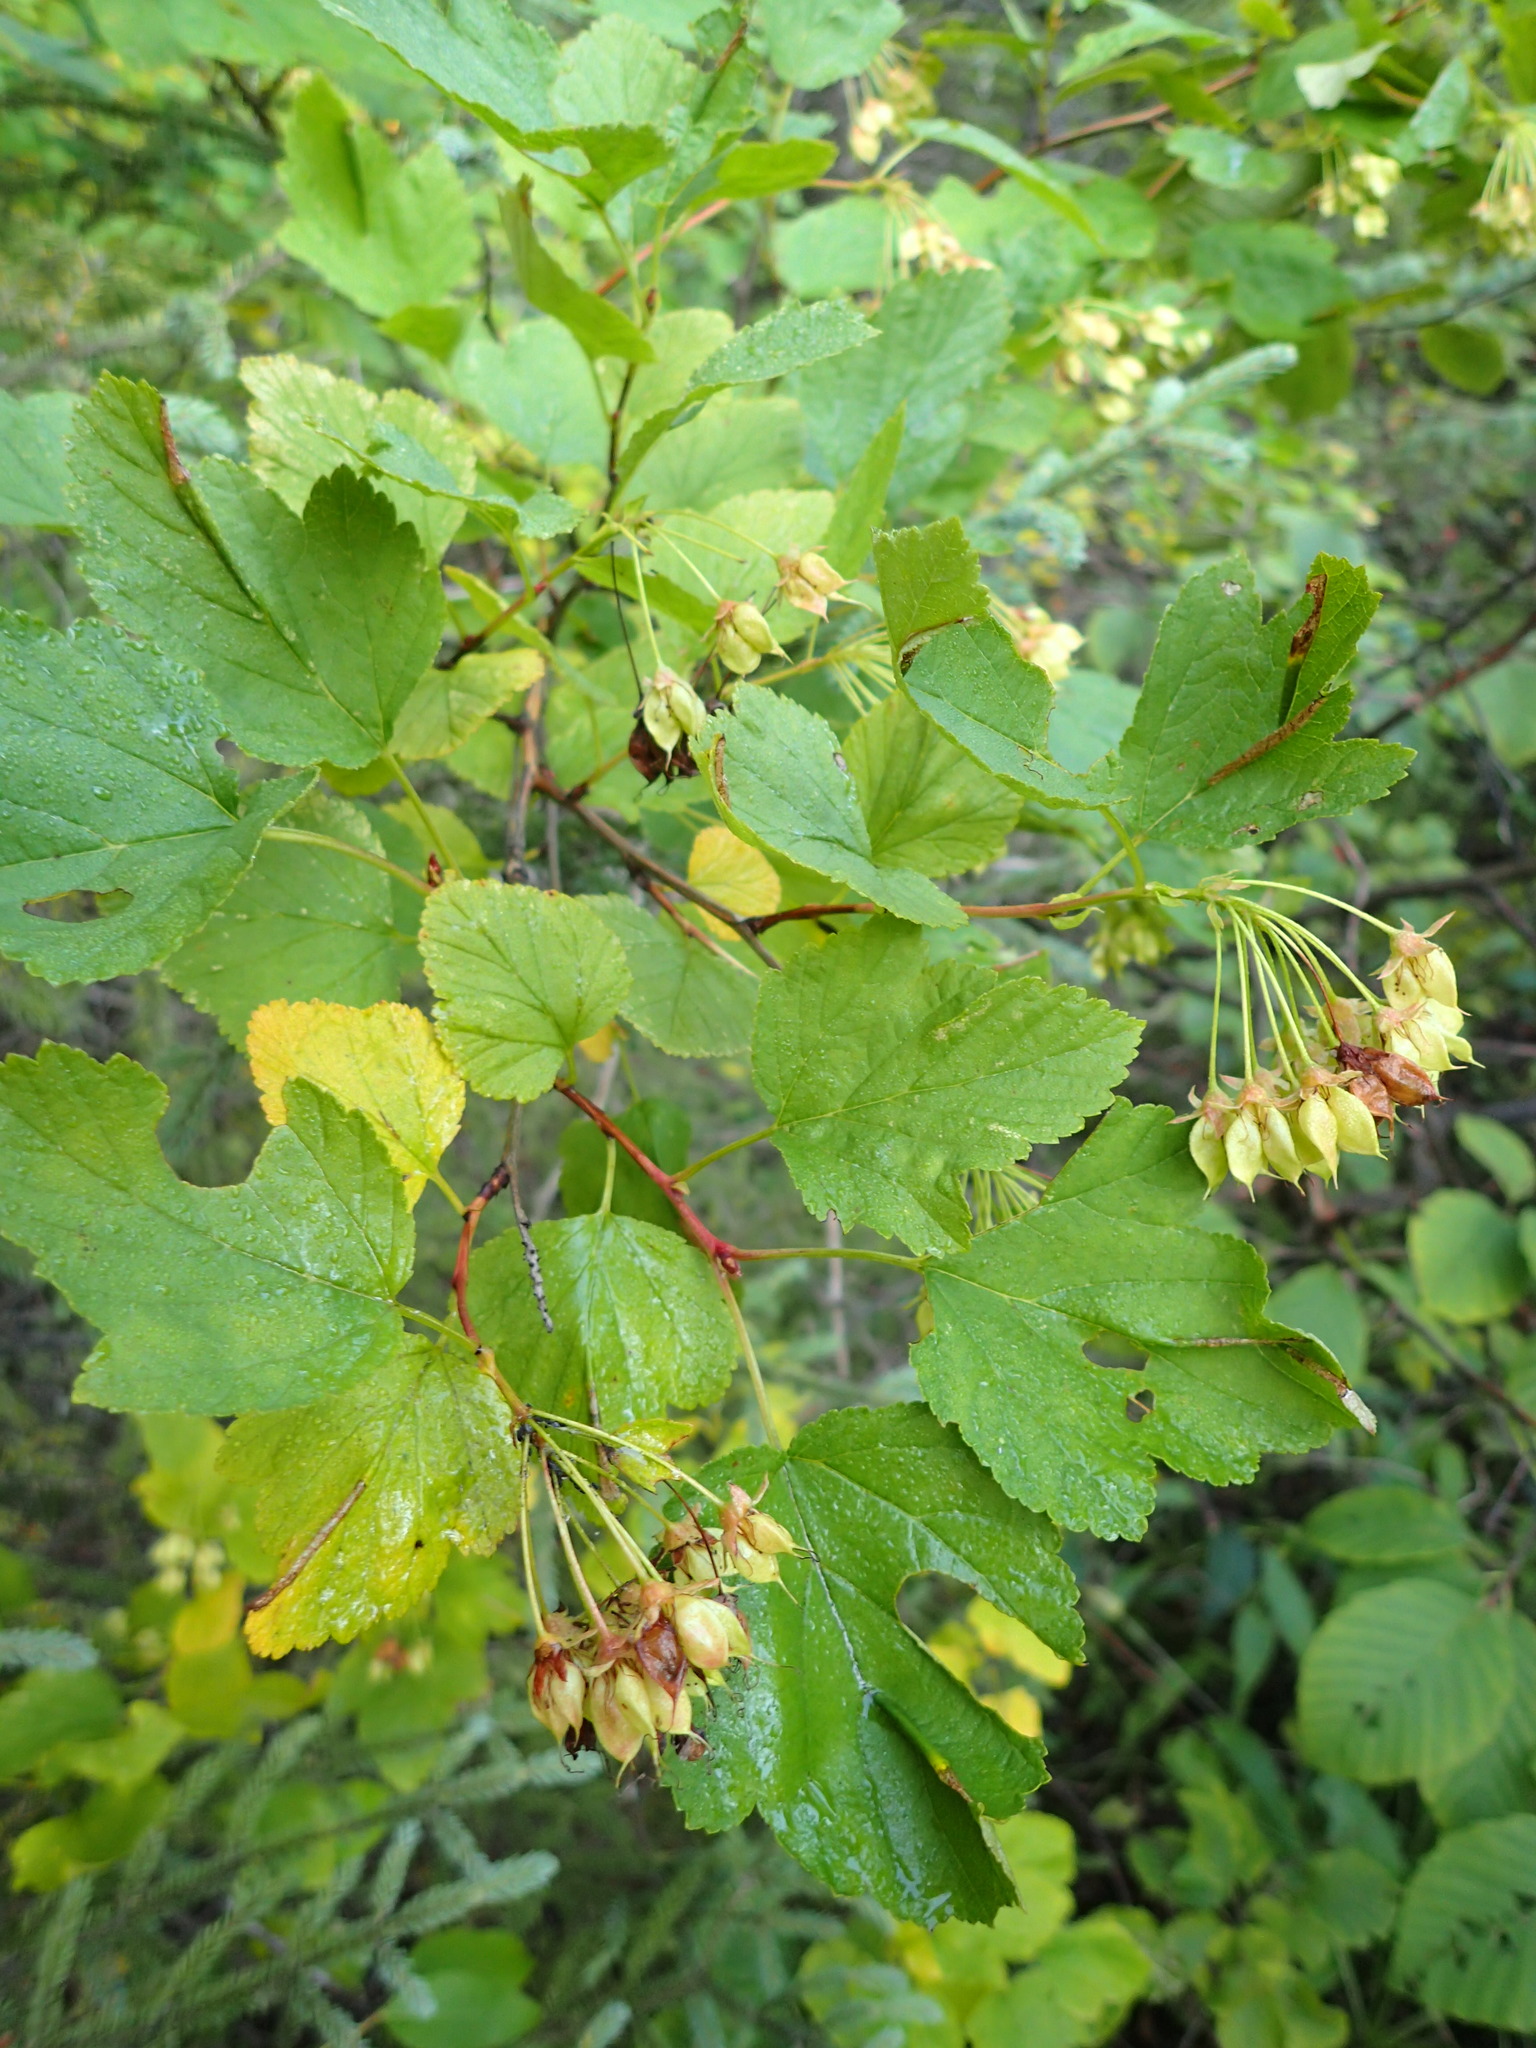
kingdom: Plantae
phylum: Tracheophyta
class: Magnoliopsida
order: Rosales
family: Rosaceae
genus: Physocarpus
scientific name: Physocarpus opulifolius
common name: Ninebark
